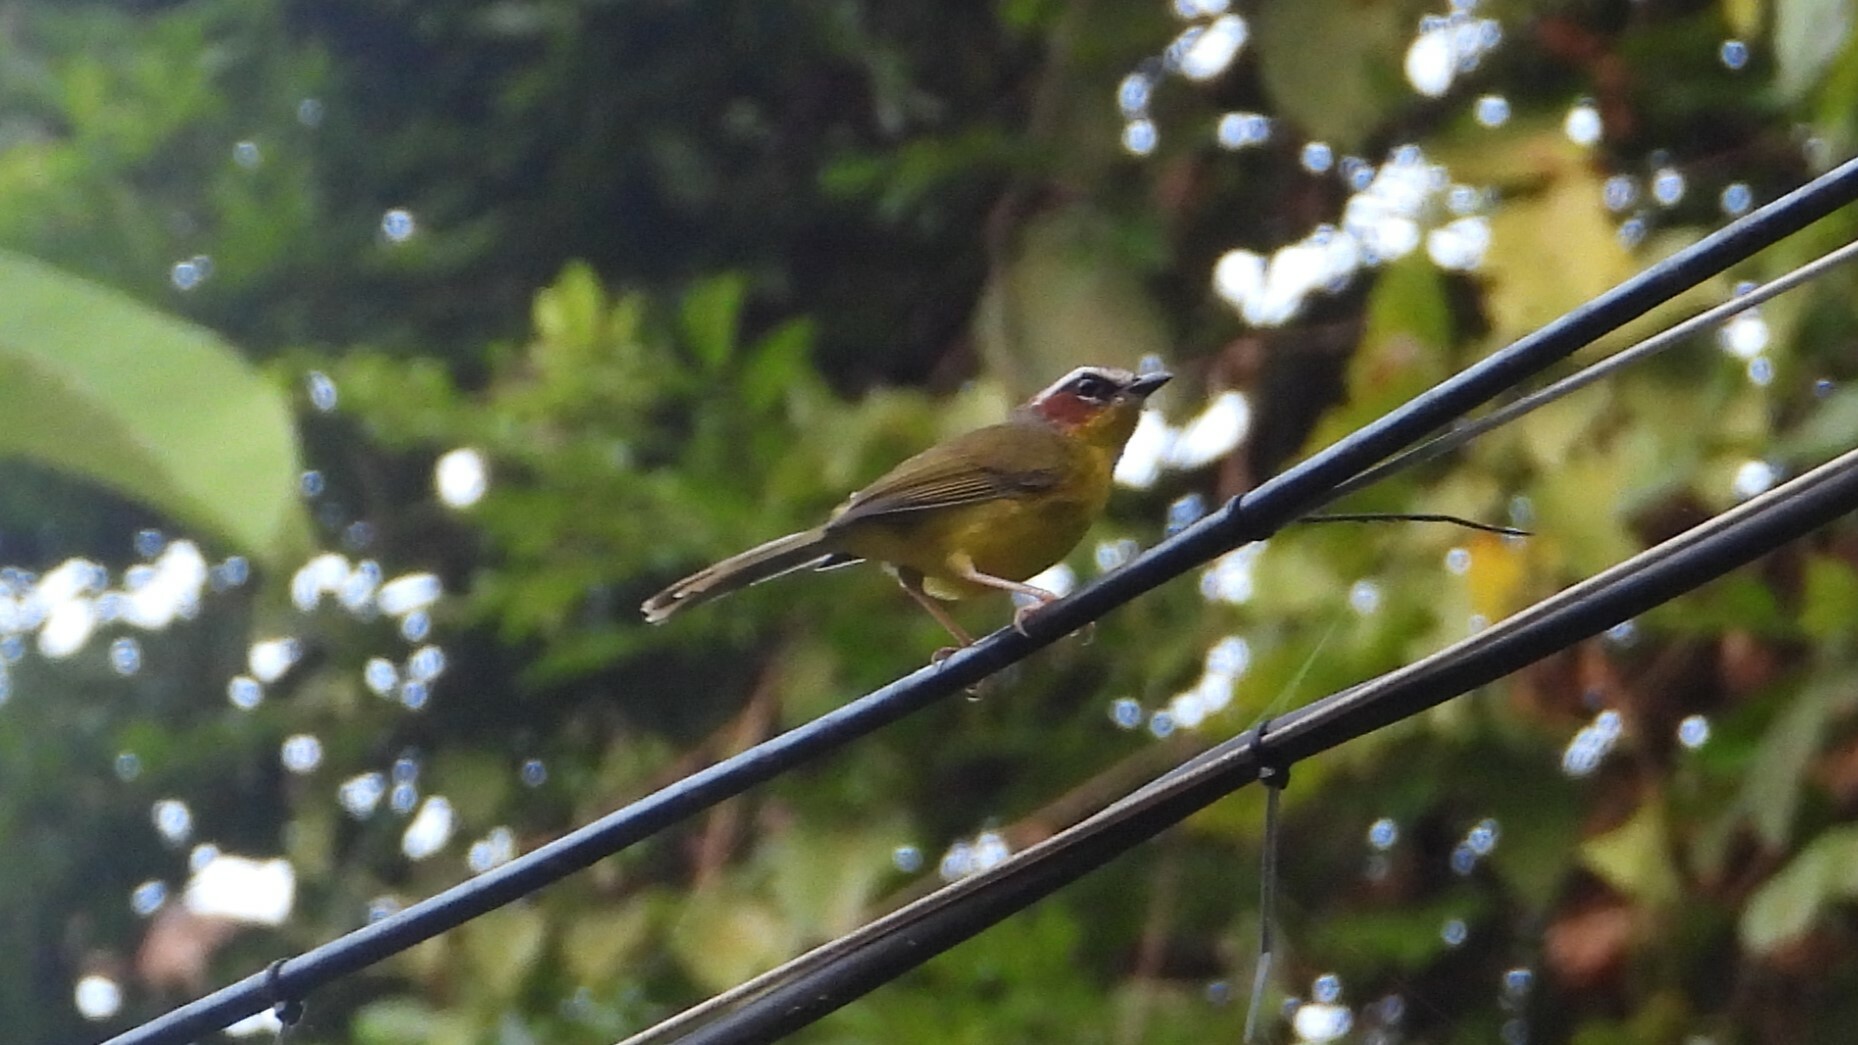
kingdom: Animalia
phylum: Chordata
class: Aves
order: Passeriformes
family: Parulidae
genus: Basileuterus
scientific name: Basileuterus rufifrons
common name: Rufous-capped warbler
